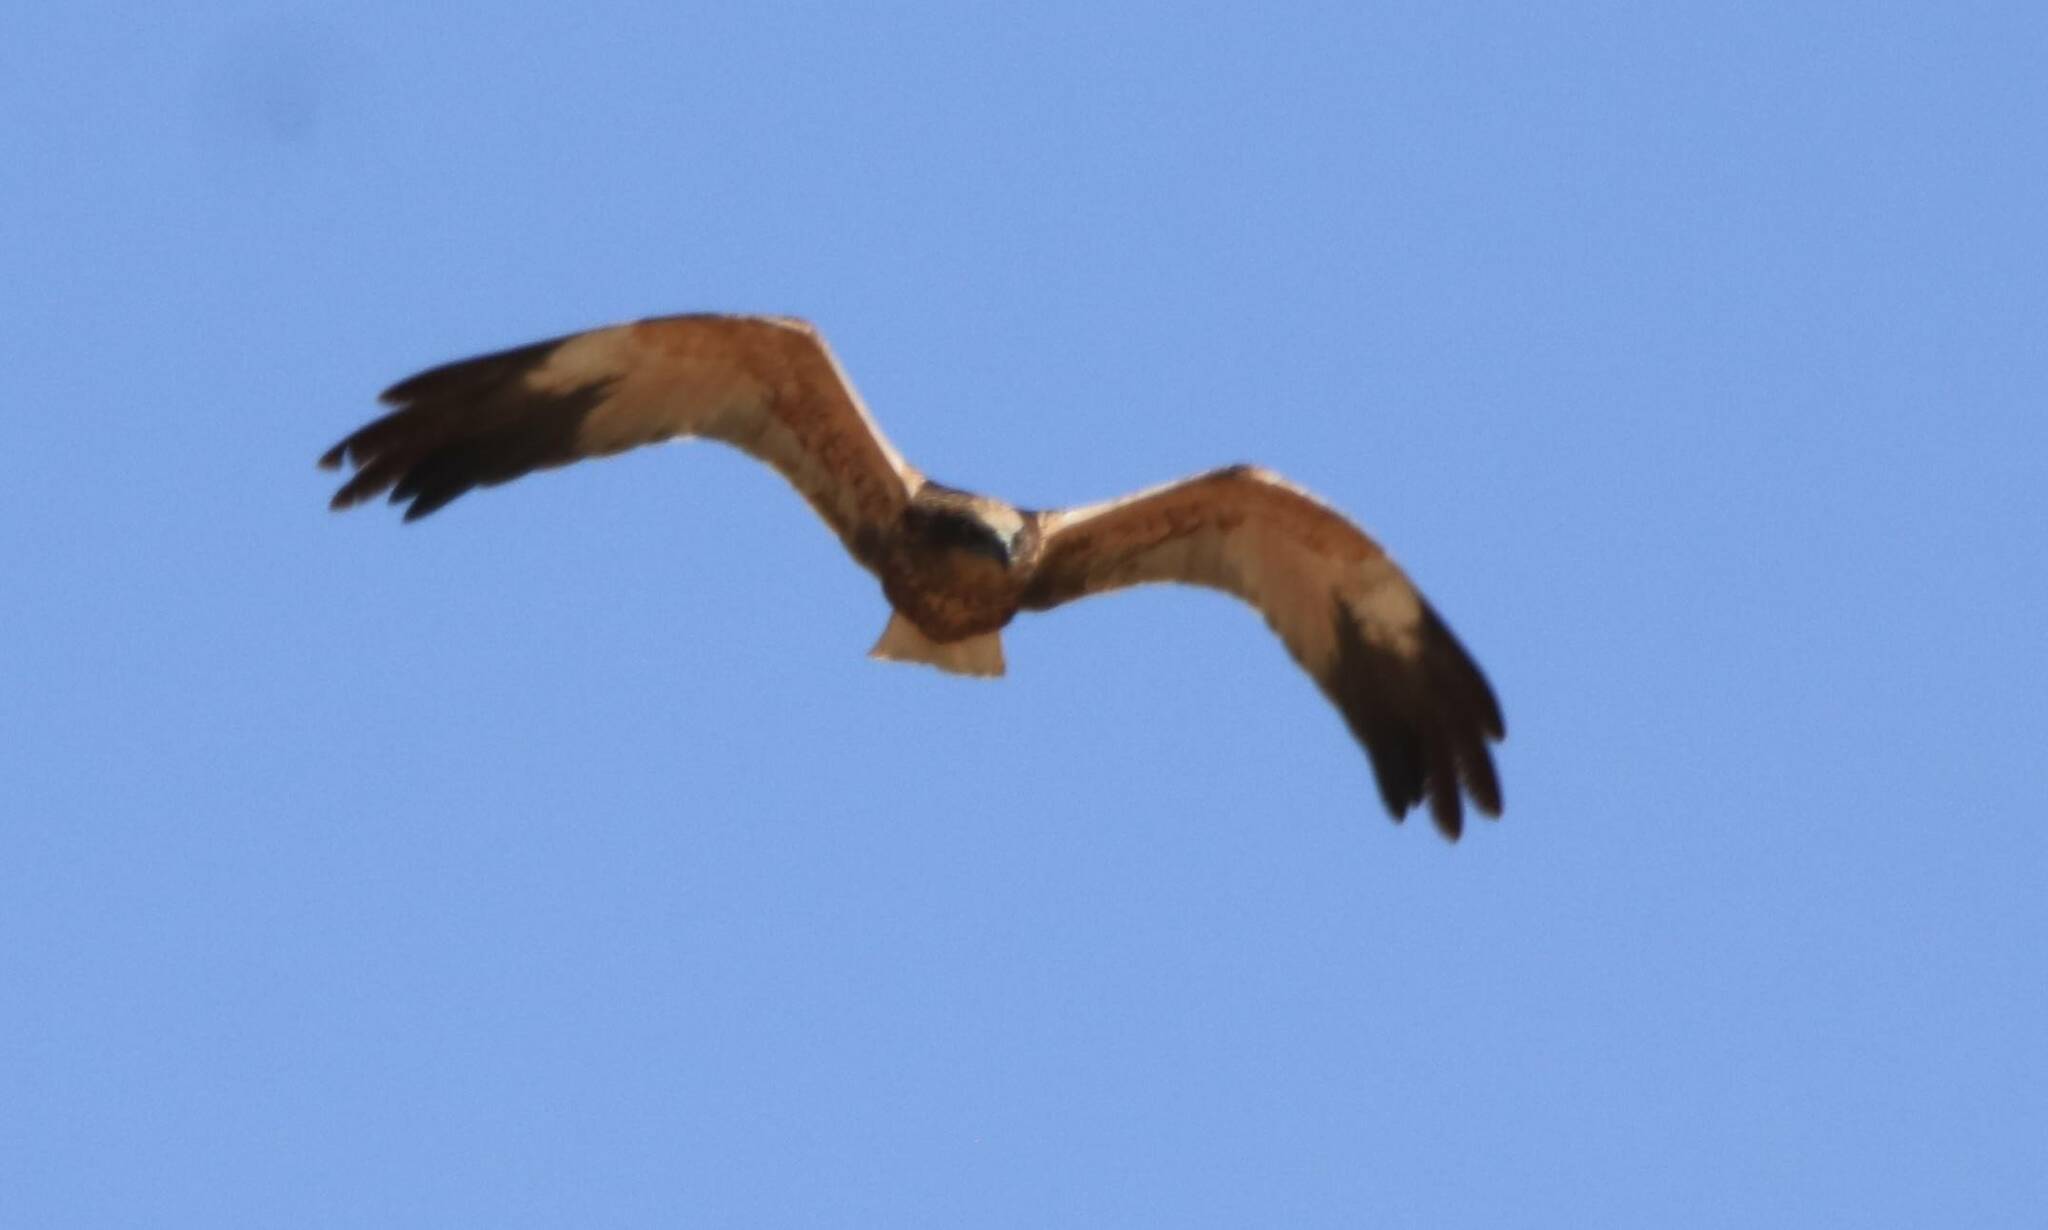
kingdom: Animalia
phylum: Chordata
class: Aves
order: Accipitriformes
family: Accipitridae
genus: Circus
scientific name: Circus aeruginosus
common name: Western marsh harrier
